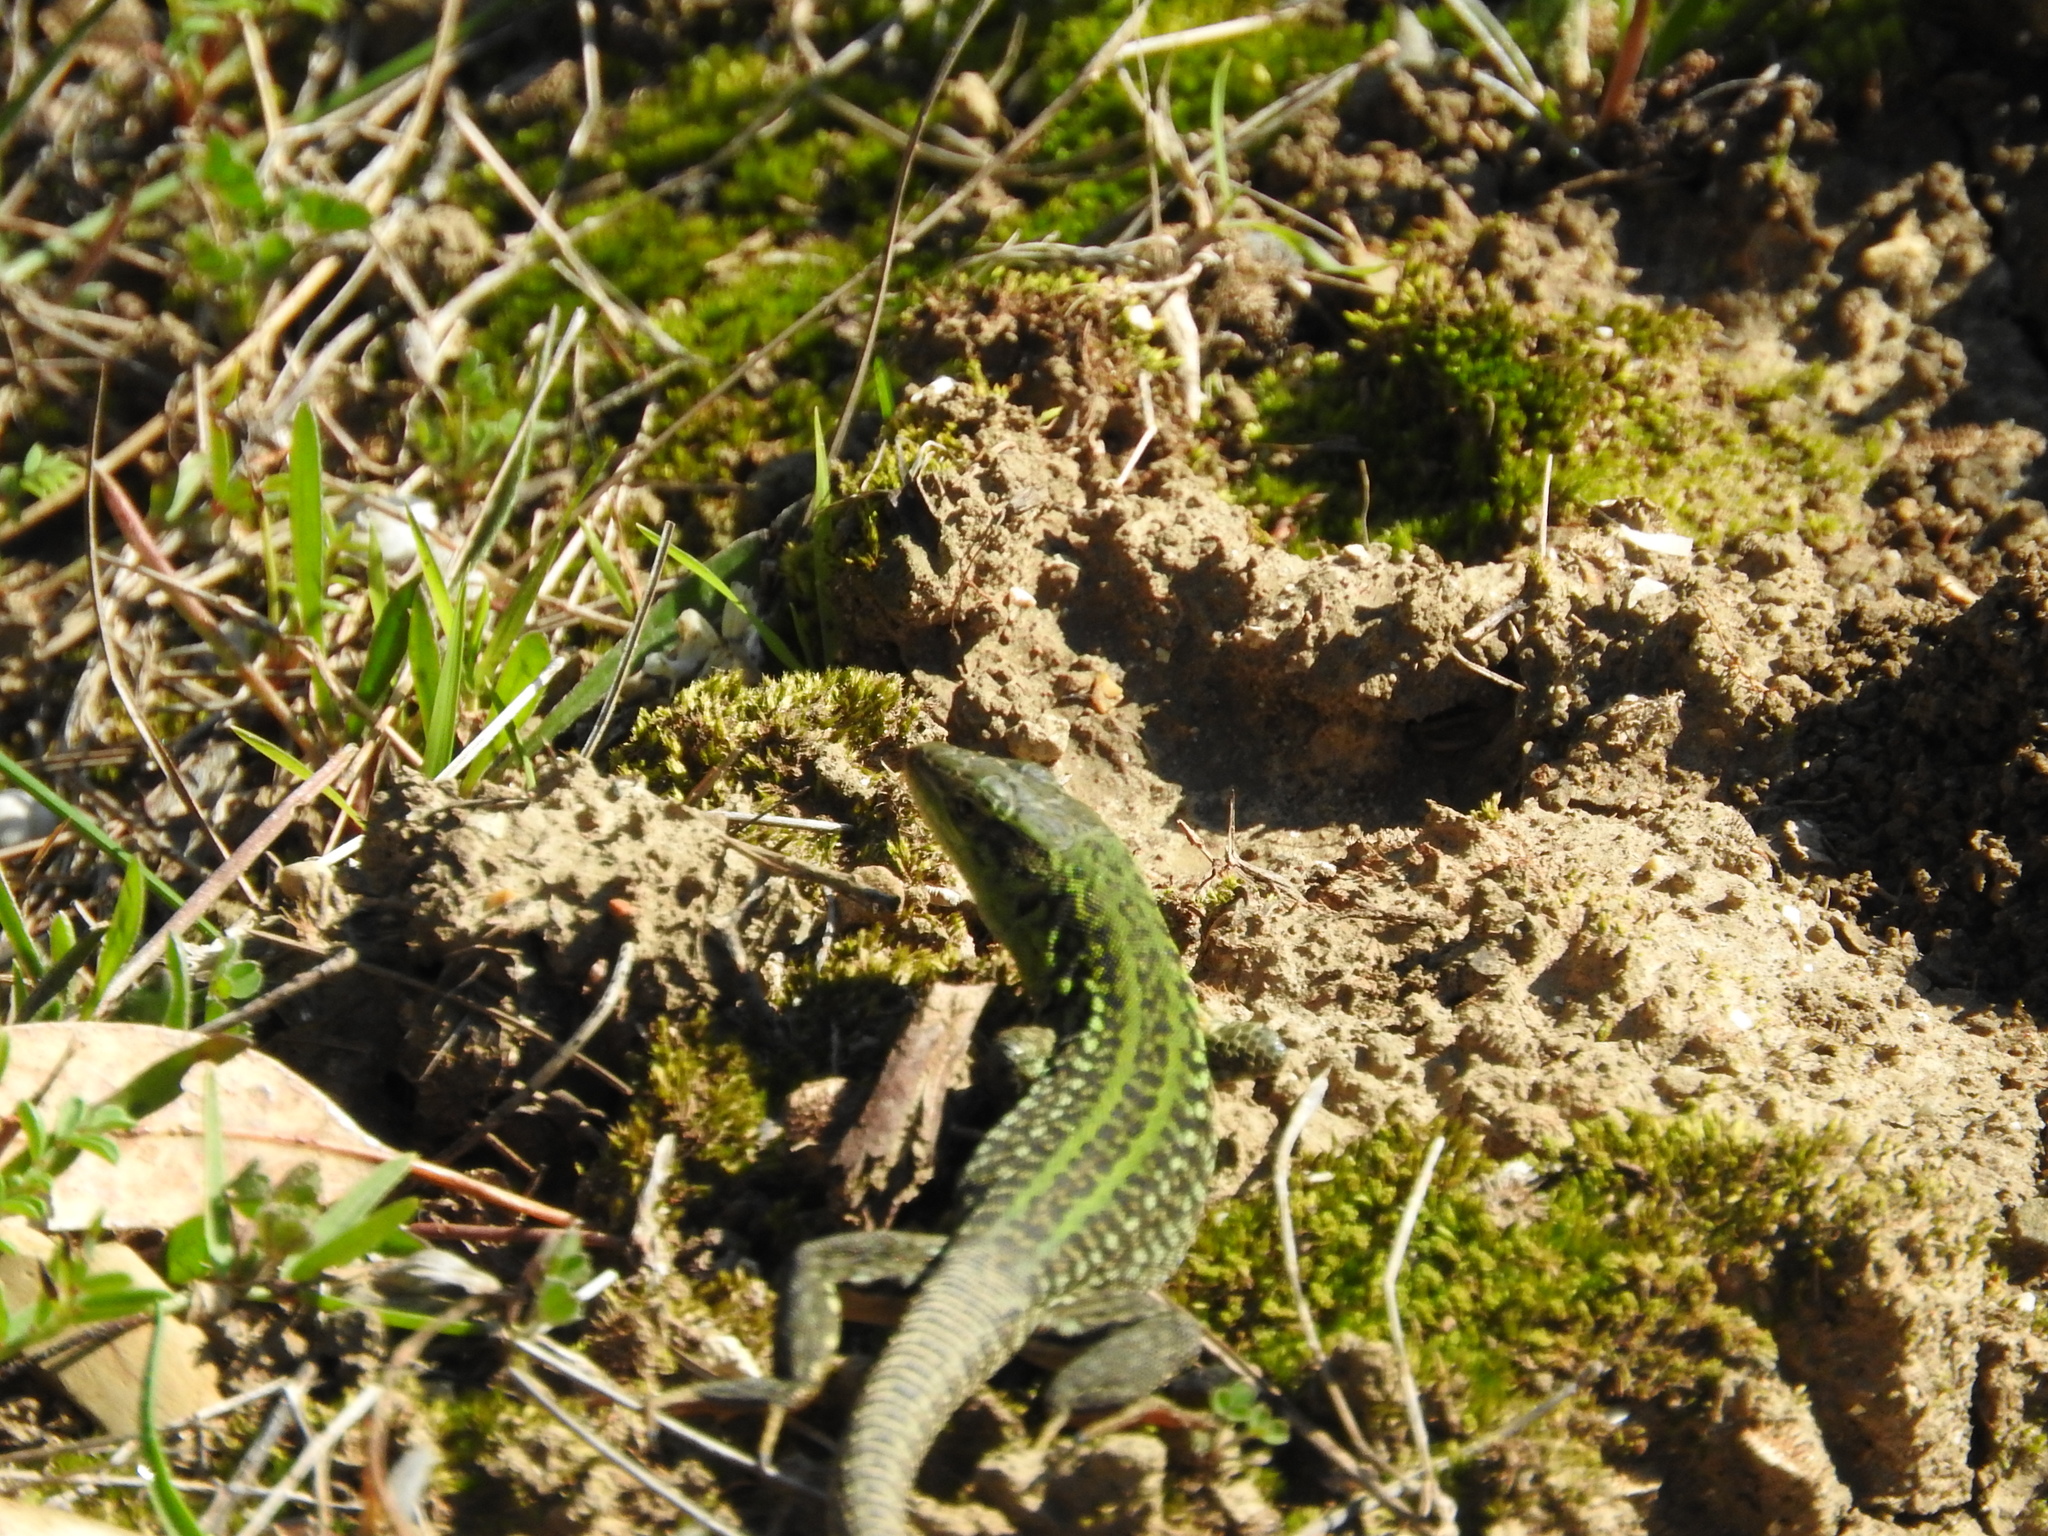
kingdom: Animalia
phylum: Chordata
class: Squamata
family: Lacertidae
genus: Podarcis
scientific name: Podarcis siculus
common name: Italian wall lizard
